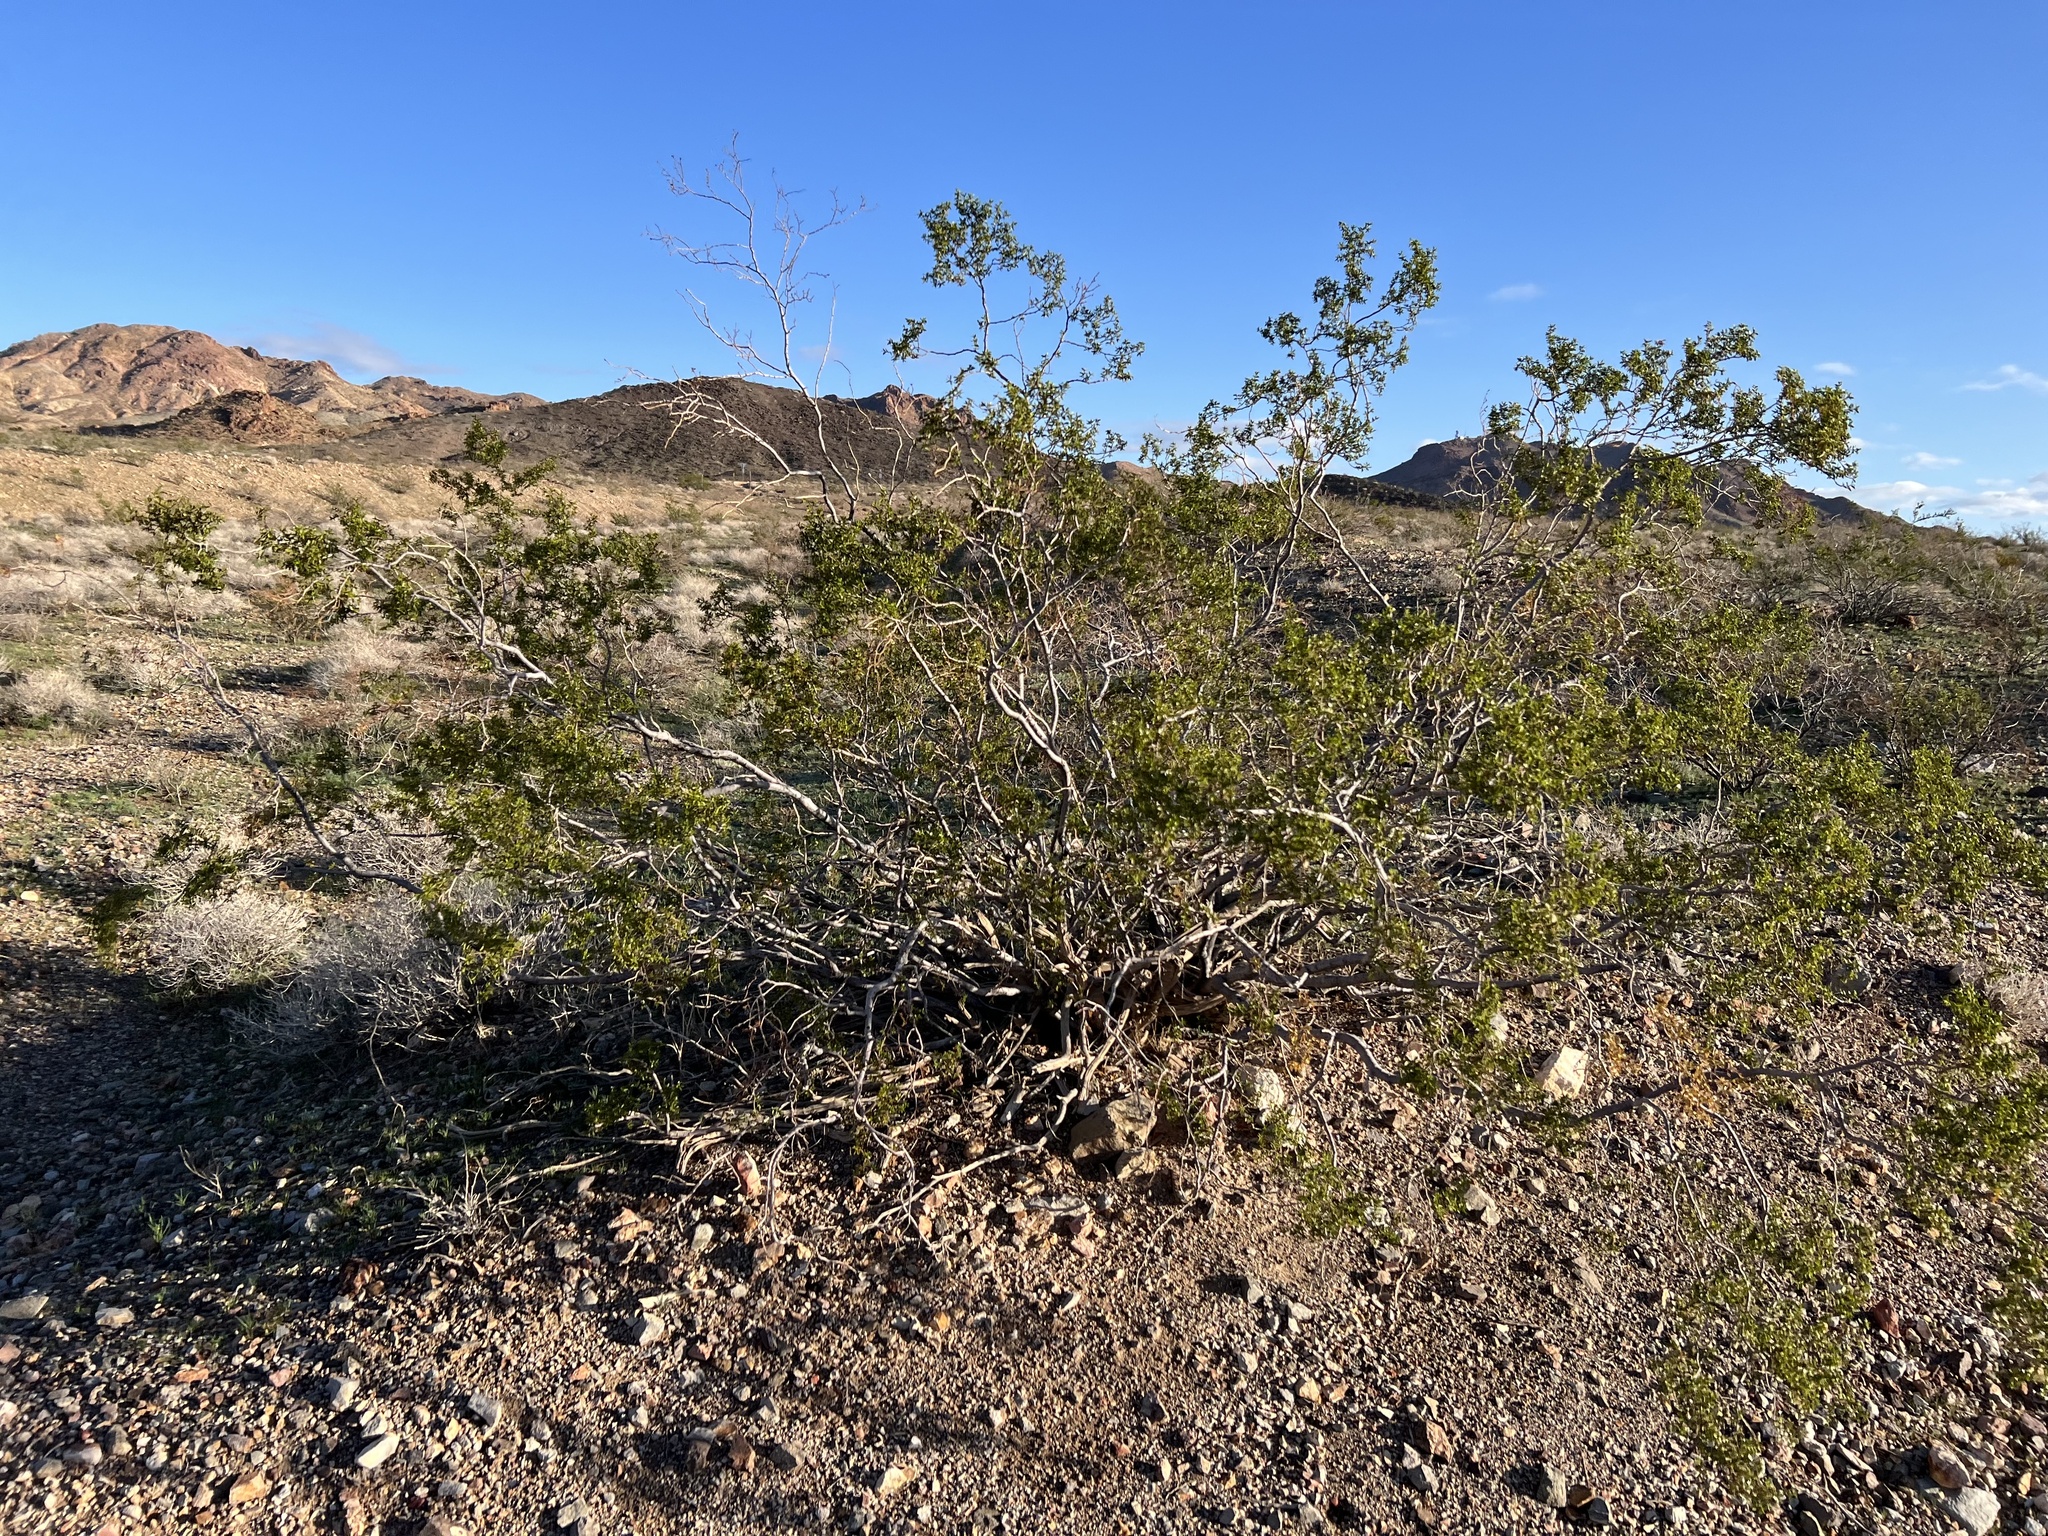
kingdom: Plantae
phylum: Tracheophyta
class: Magnoliopsida
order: Zygophyllales
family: Zygophyllaceae
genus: Larrea
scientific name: Larrea tridentata
